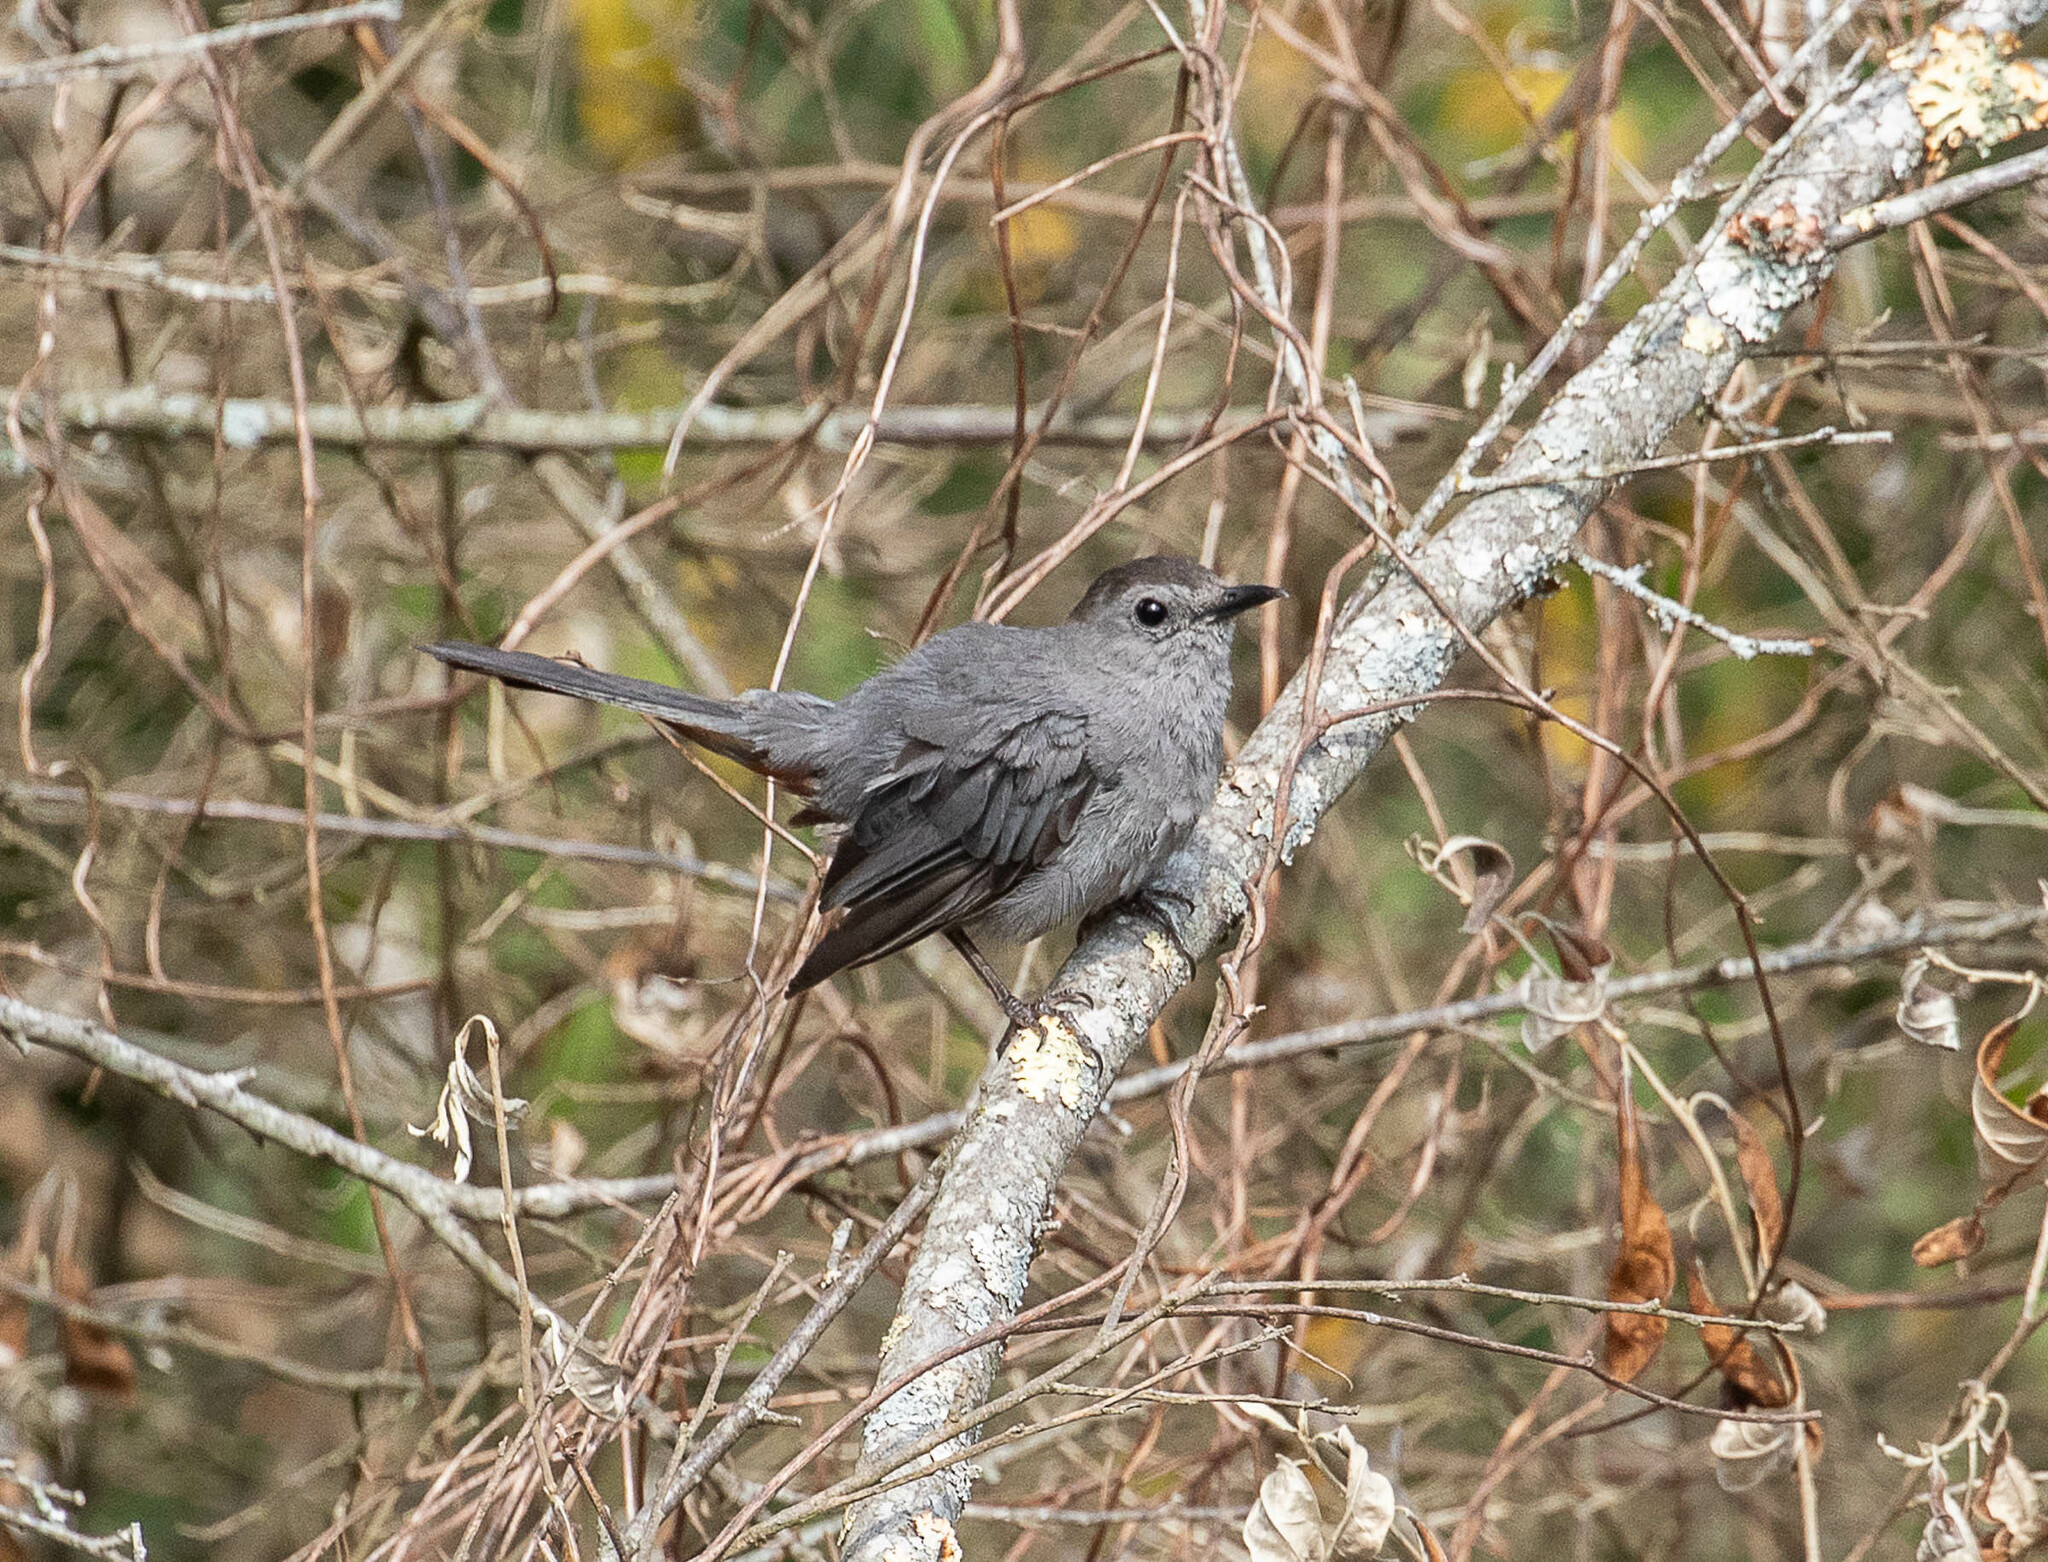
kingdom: Animalia
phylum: Chordata
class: Aves
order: Passeriformes
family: Mimidae
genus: Dumetella
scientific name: Dumetella carolinensis
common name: Gray catbird
